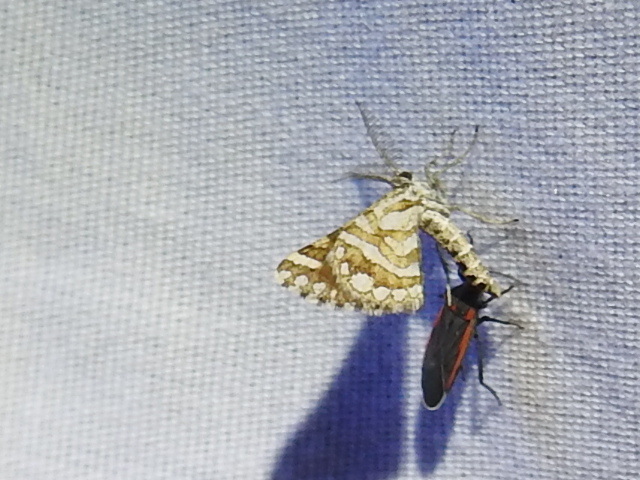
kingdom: Animalia
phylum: Arthropoda
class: Insecta
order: Lepidoptera
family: Geometridae
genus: Narraga
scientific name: Narraga fimetaria
